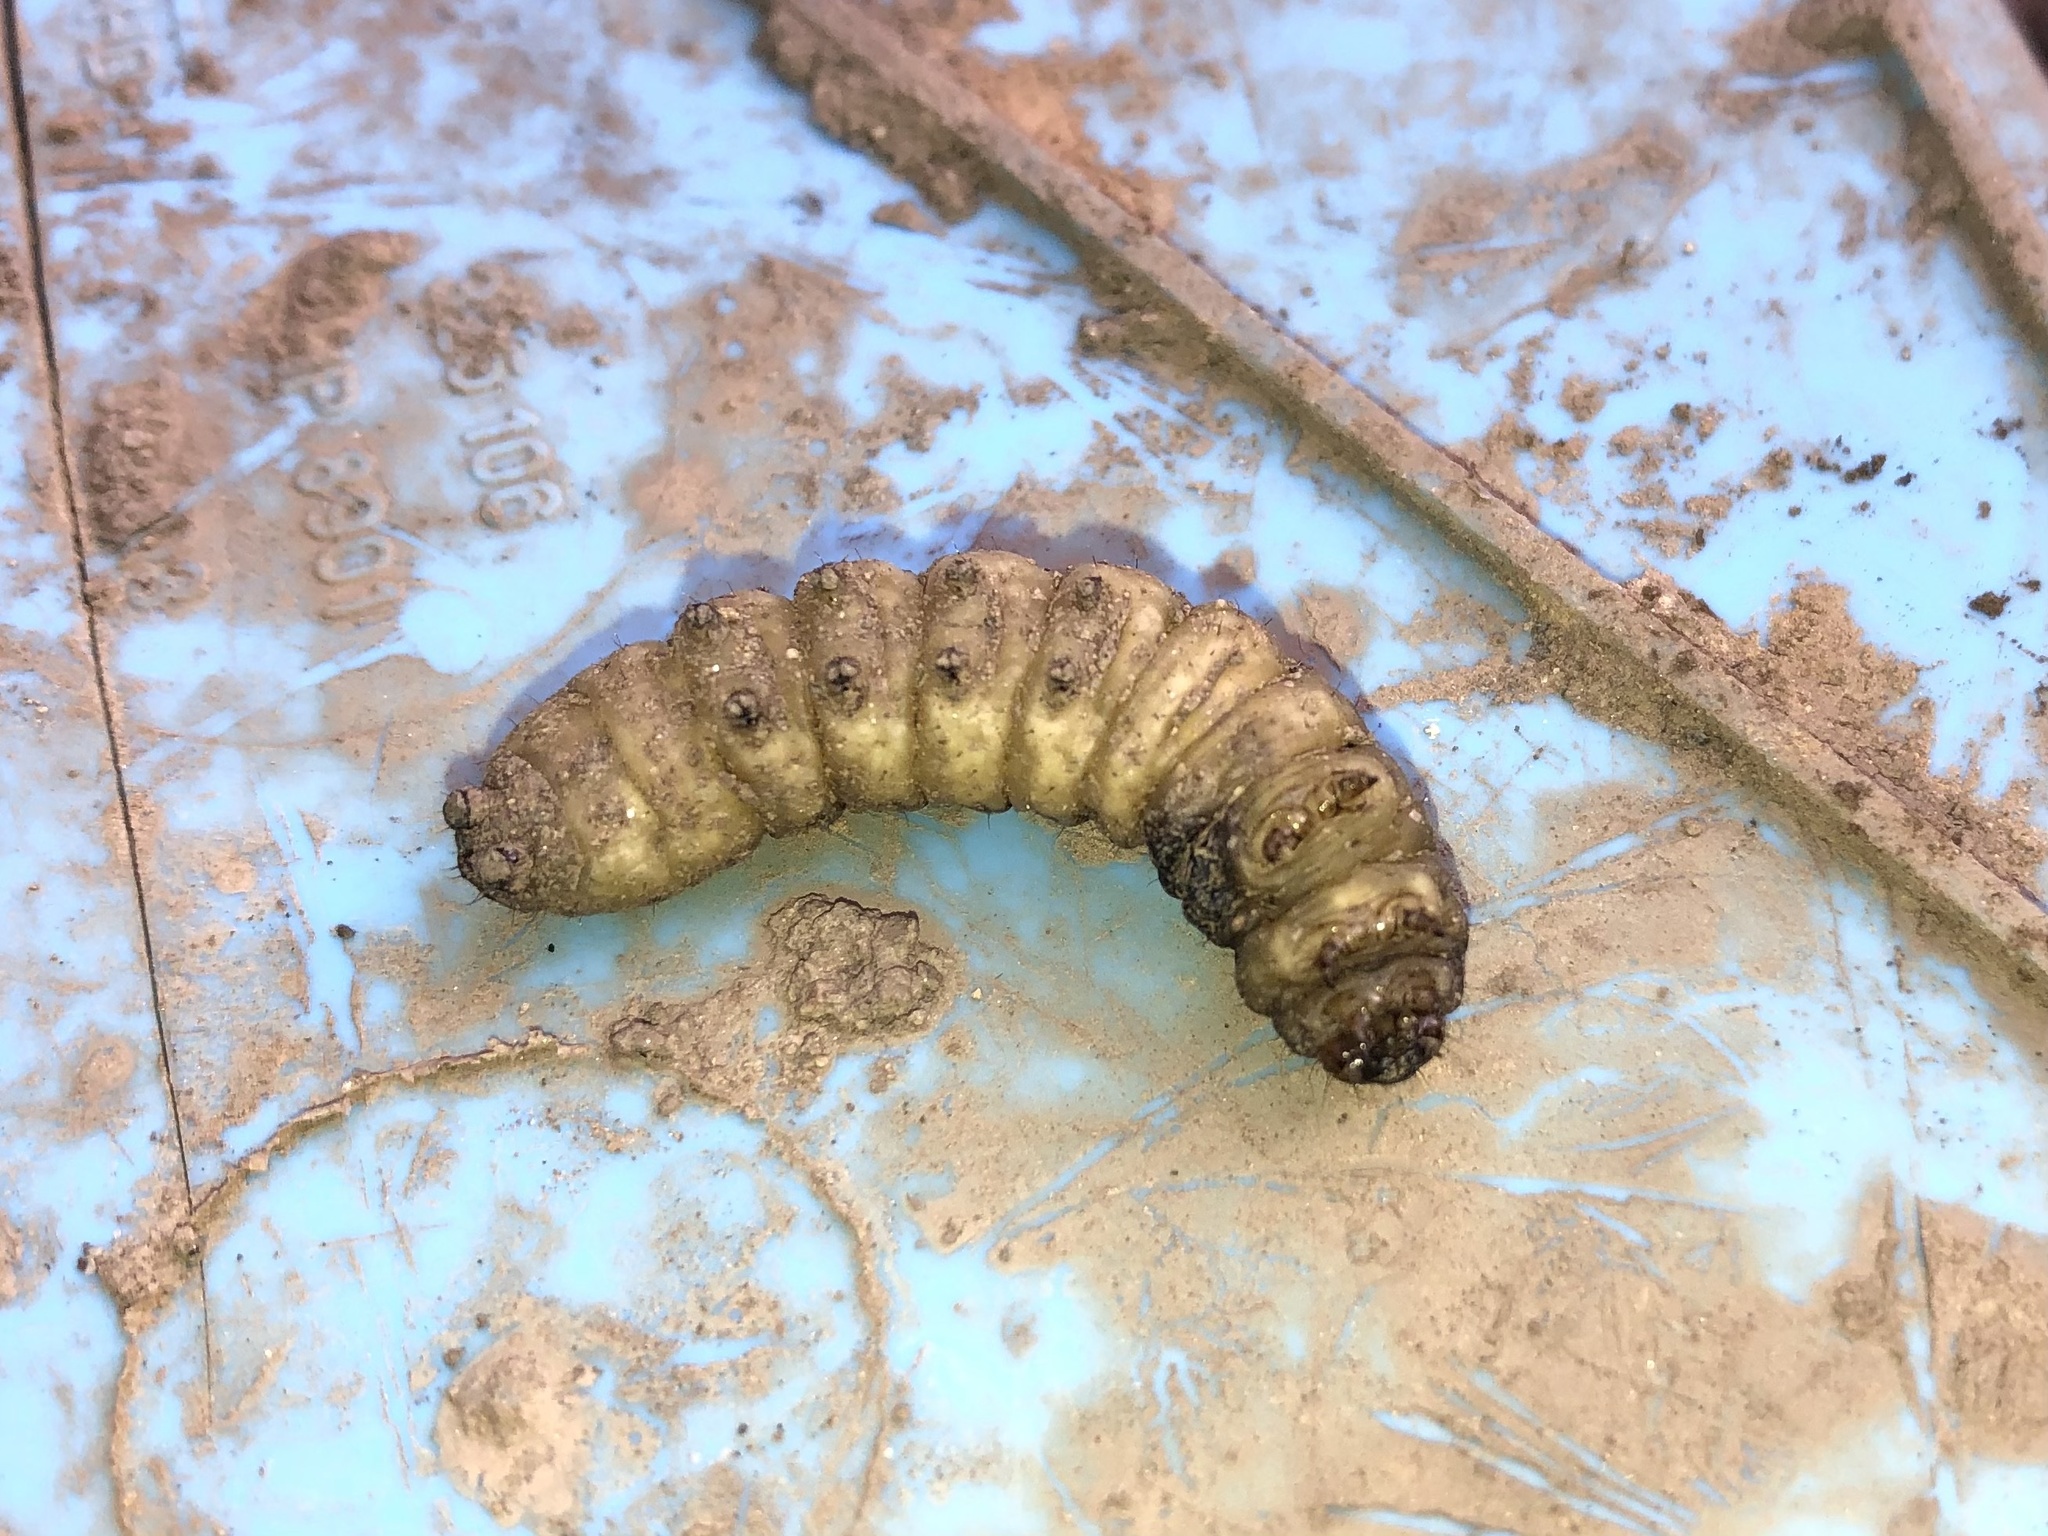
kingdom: Animalia
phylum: Arthropoda
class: Insecta
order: Lepidoptera
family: Noctuidae
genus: Noctua
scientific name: Noctua pronuba
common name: Large yellow underwing
